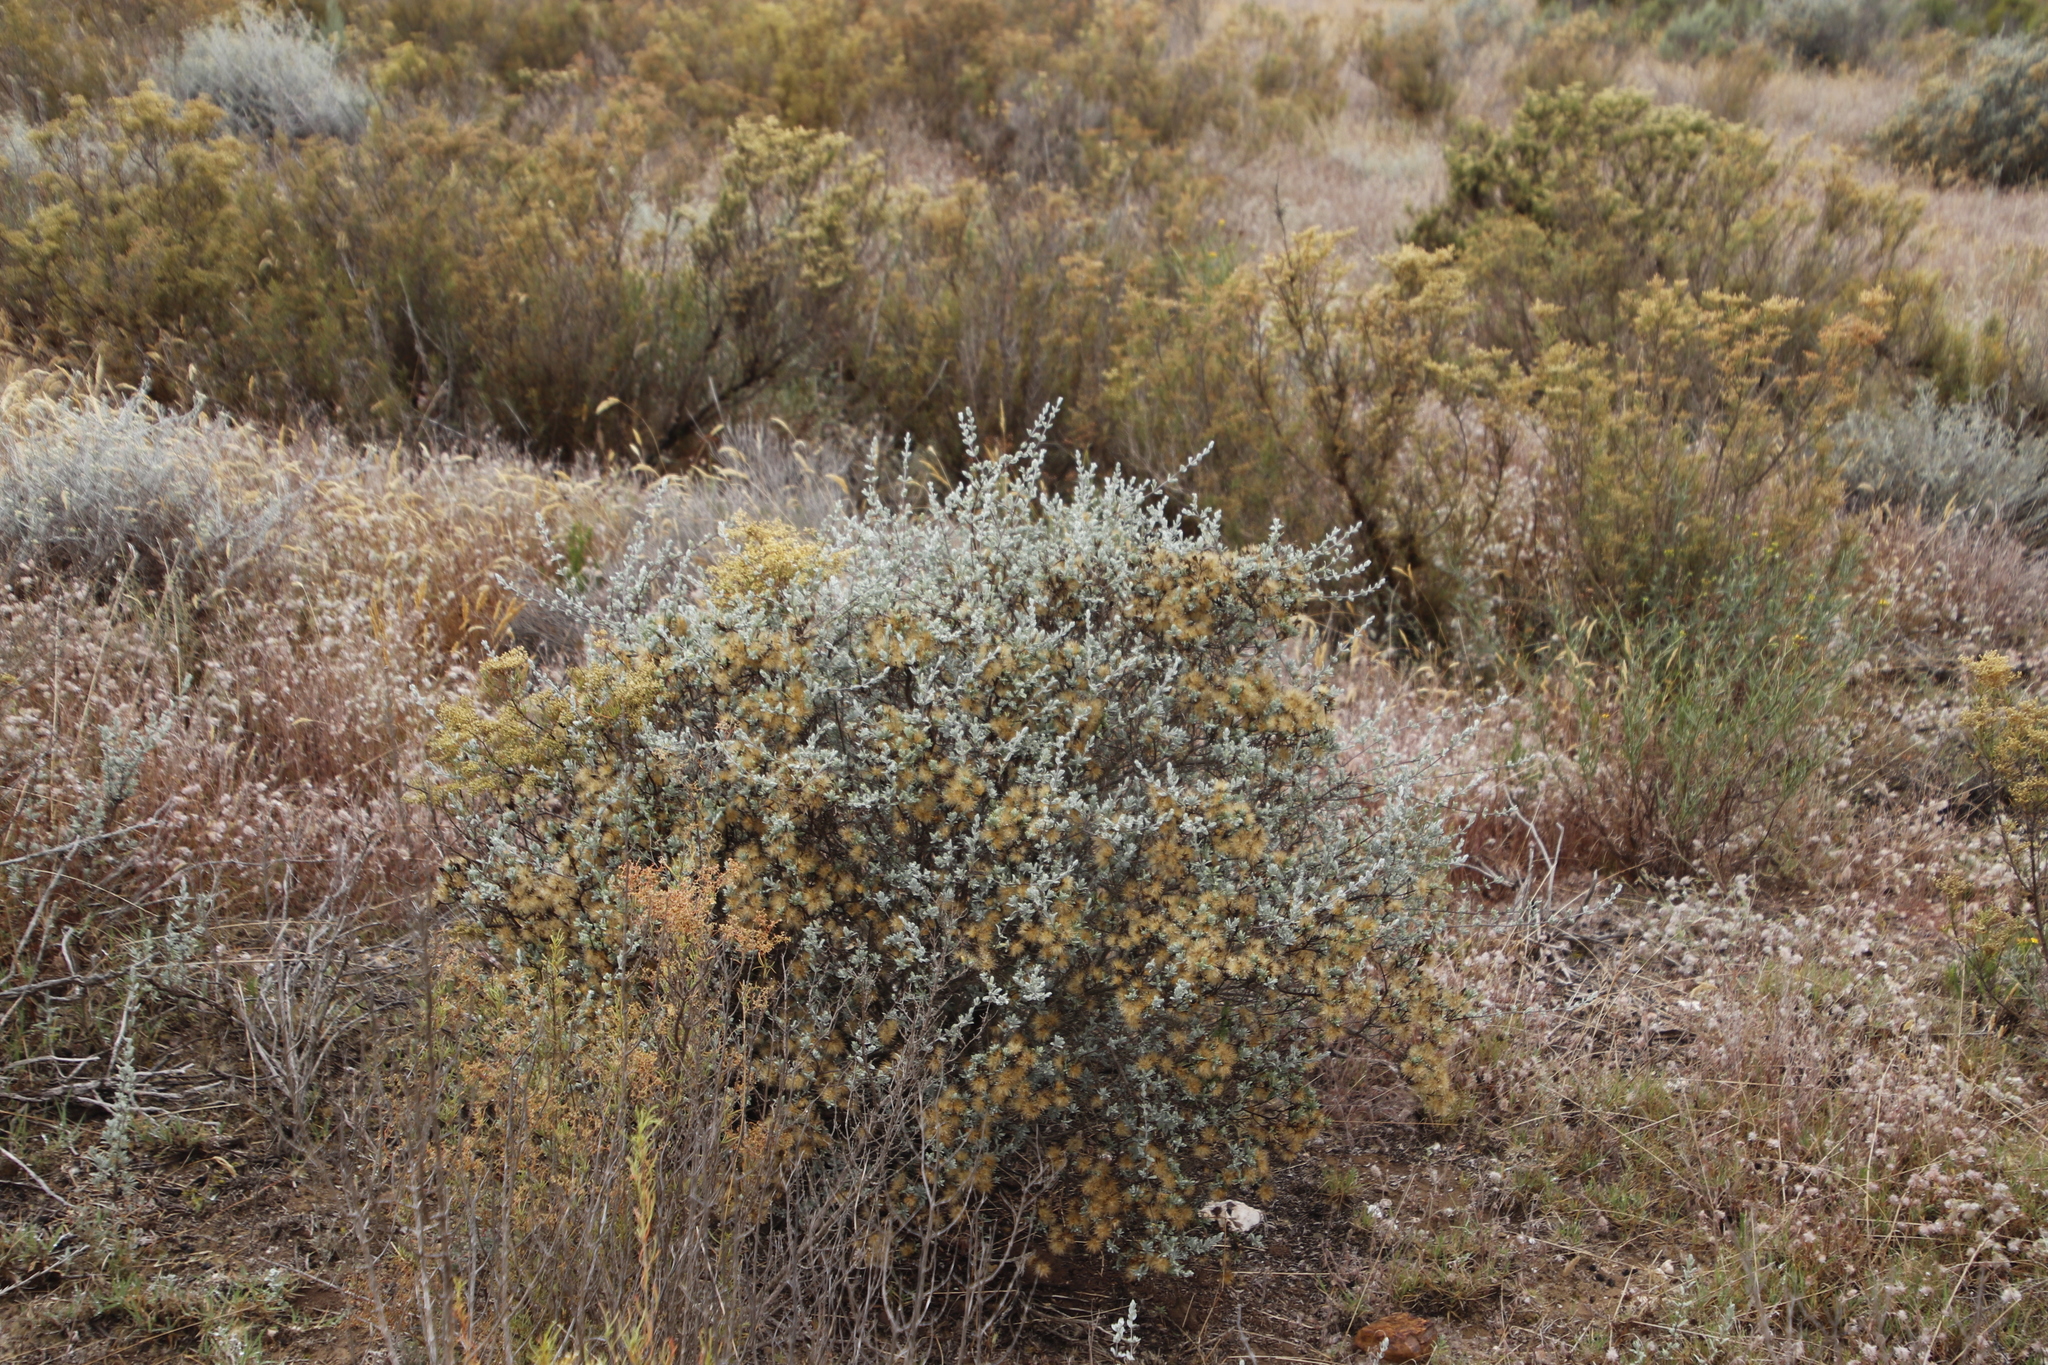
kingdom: Plantae
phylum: Tracheophyta
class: Magnoliopsida
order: Asterales
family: Asteraceae
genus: Pteronia
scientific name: Pteronia incana
